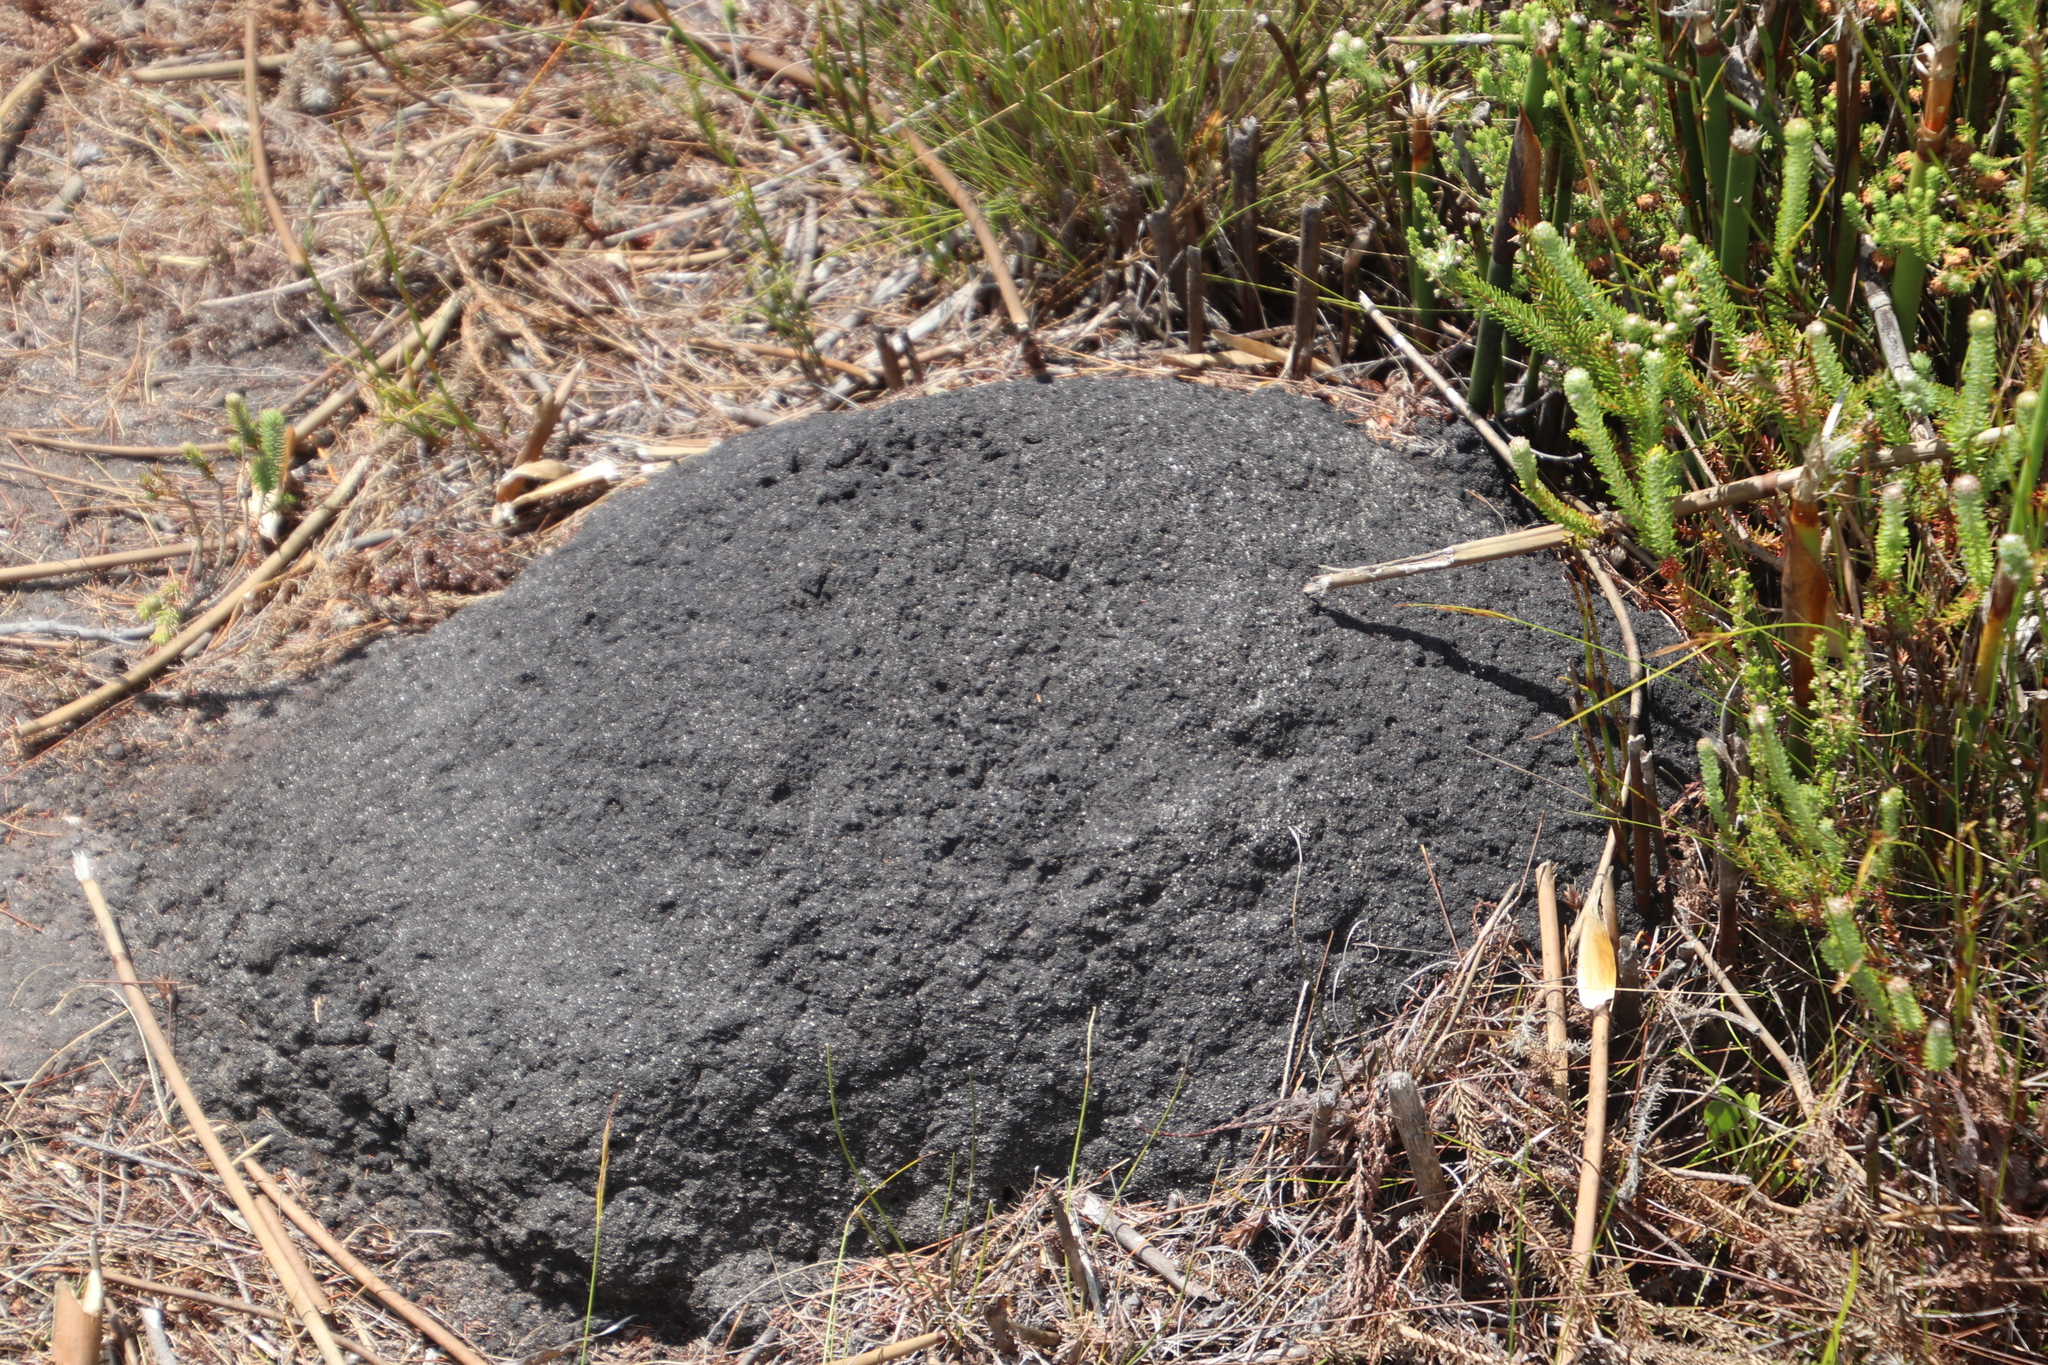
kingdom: Animalia
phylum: Arthropoda
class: Insecta
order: Blattodea
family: Termitidae
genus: Amitermes
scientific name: Amitermes hastatus
